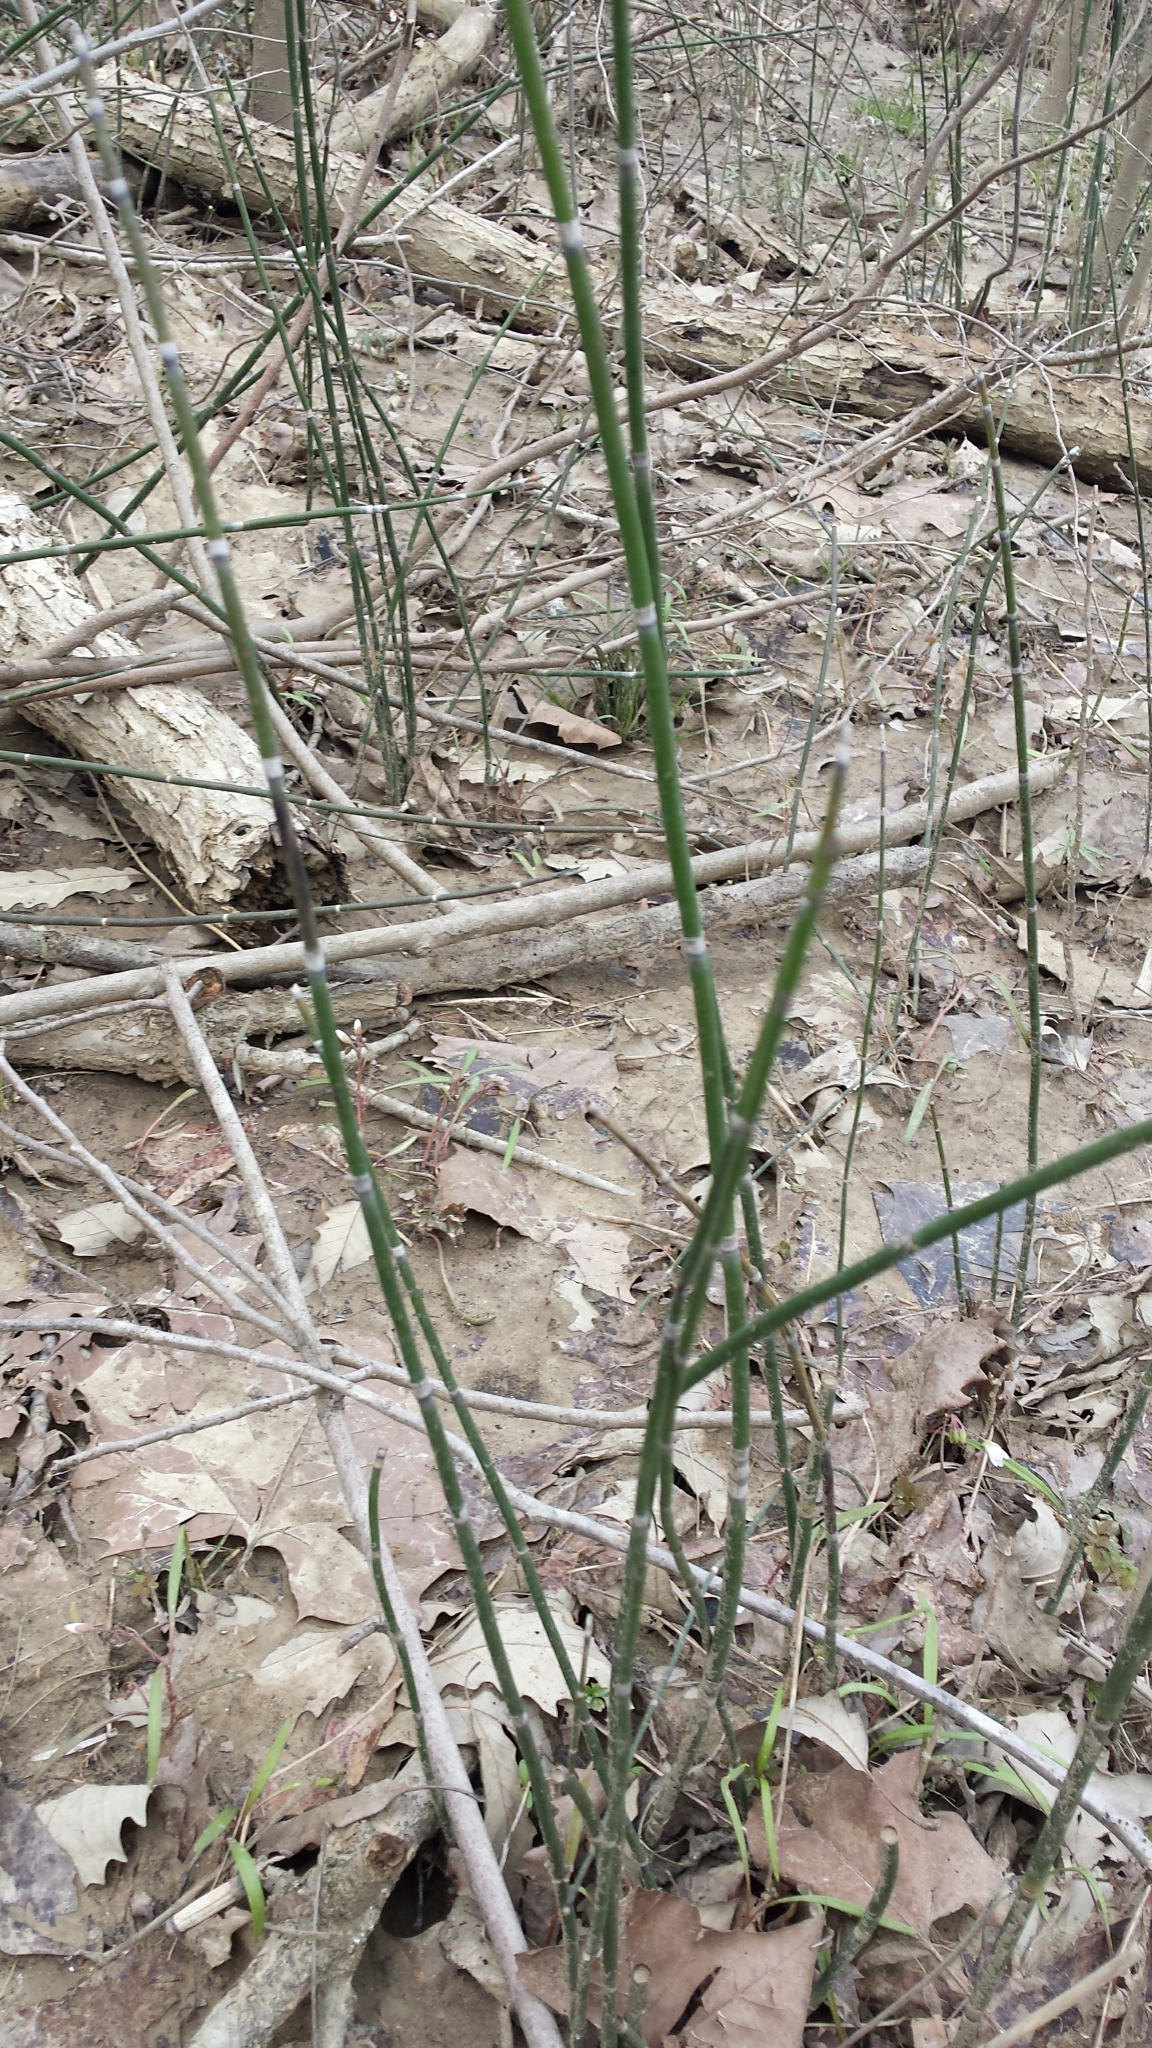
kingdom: Plantae
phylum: Tracheophyta
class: Polypodiopsida
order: Equisetales
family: Equisetaceae
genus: Equisetum
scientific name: Equisetum hyemale
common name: Rough horsetail
